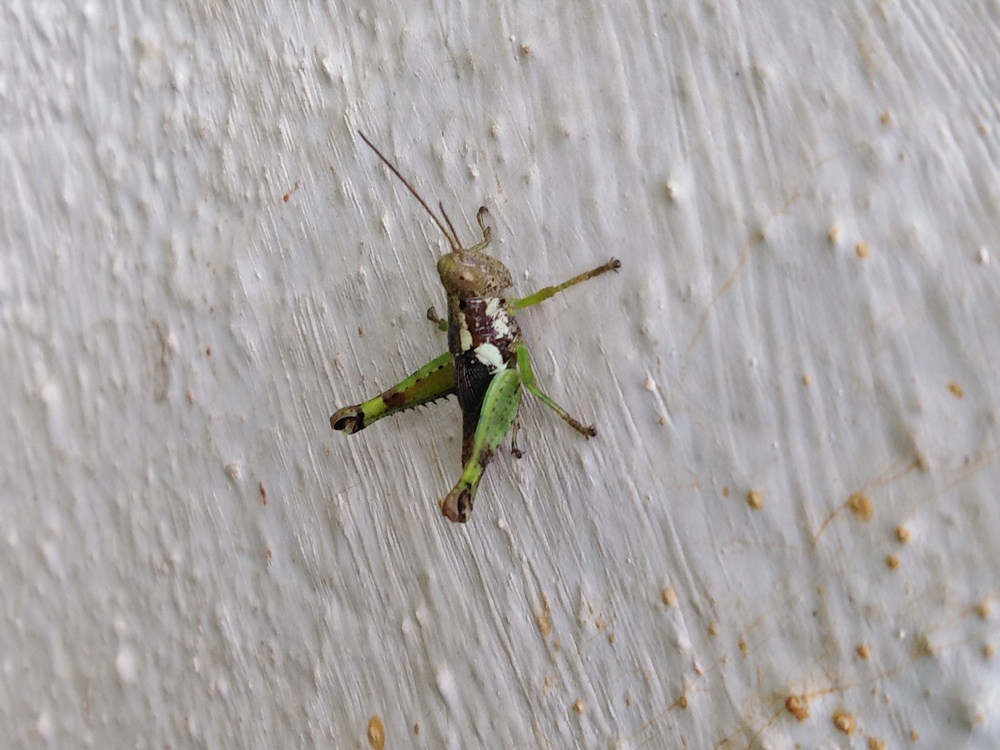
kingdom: Animalia
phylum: Arthropoda
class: Insecta
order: Orthoptera
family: Acrididae
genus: Pirithoicus
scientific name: Pirithoicus ophthalmicus
